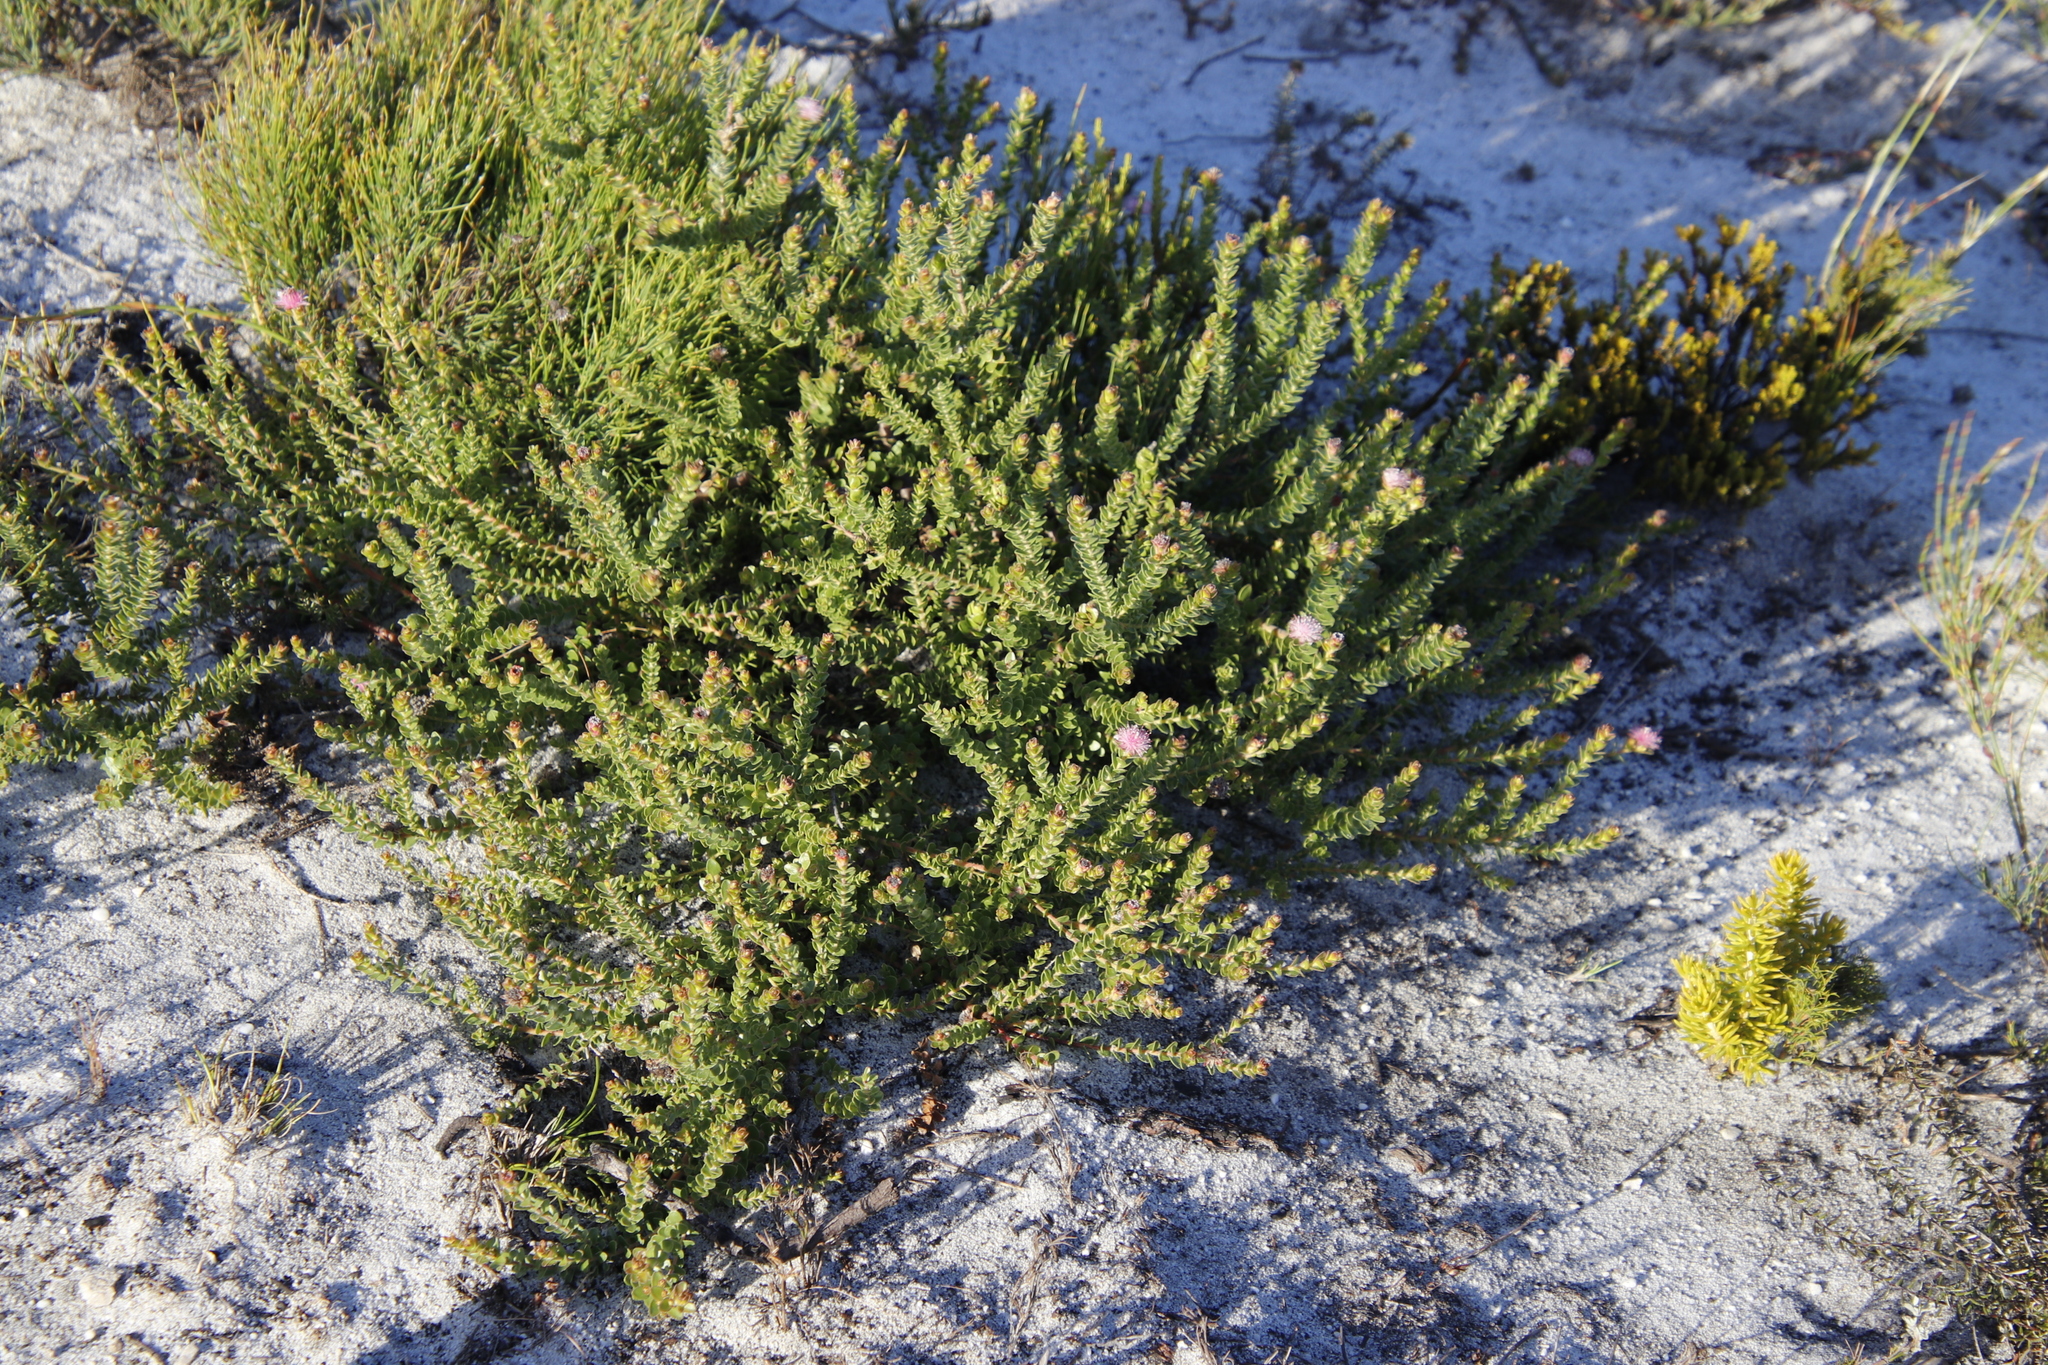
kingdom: Plantae
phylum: Tracheophyta
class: Magnoliopsida
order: Proteales
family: Proteaceae
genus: Diastella
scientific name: Diastella divaricata
